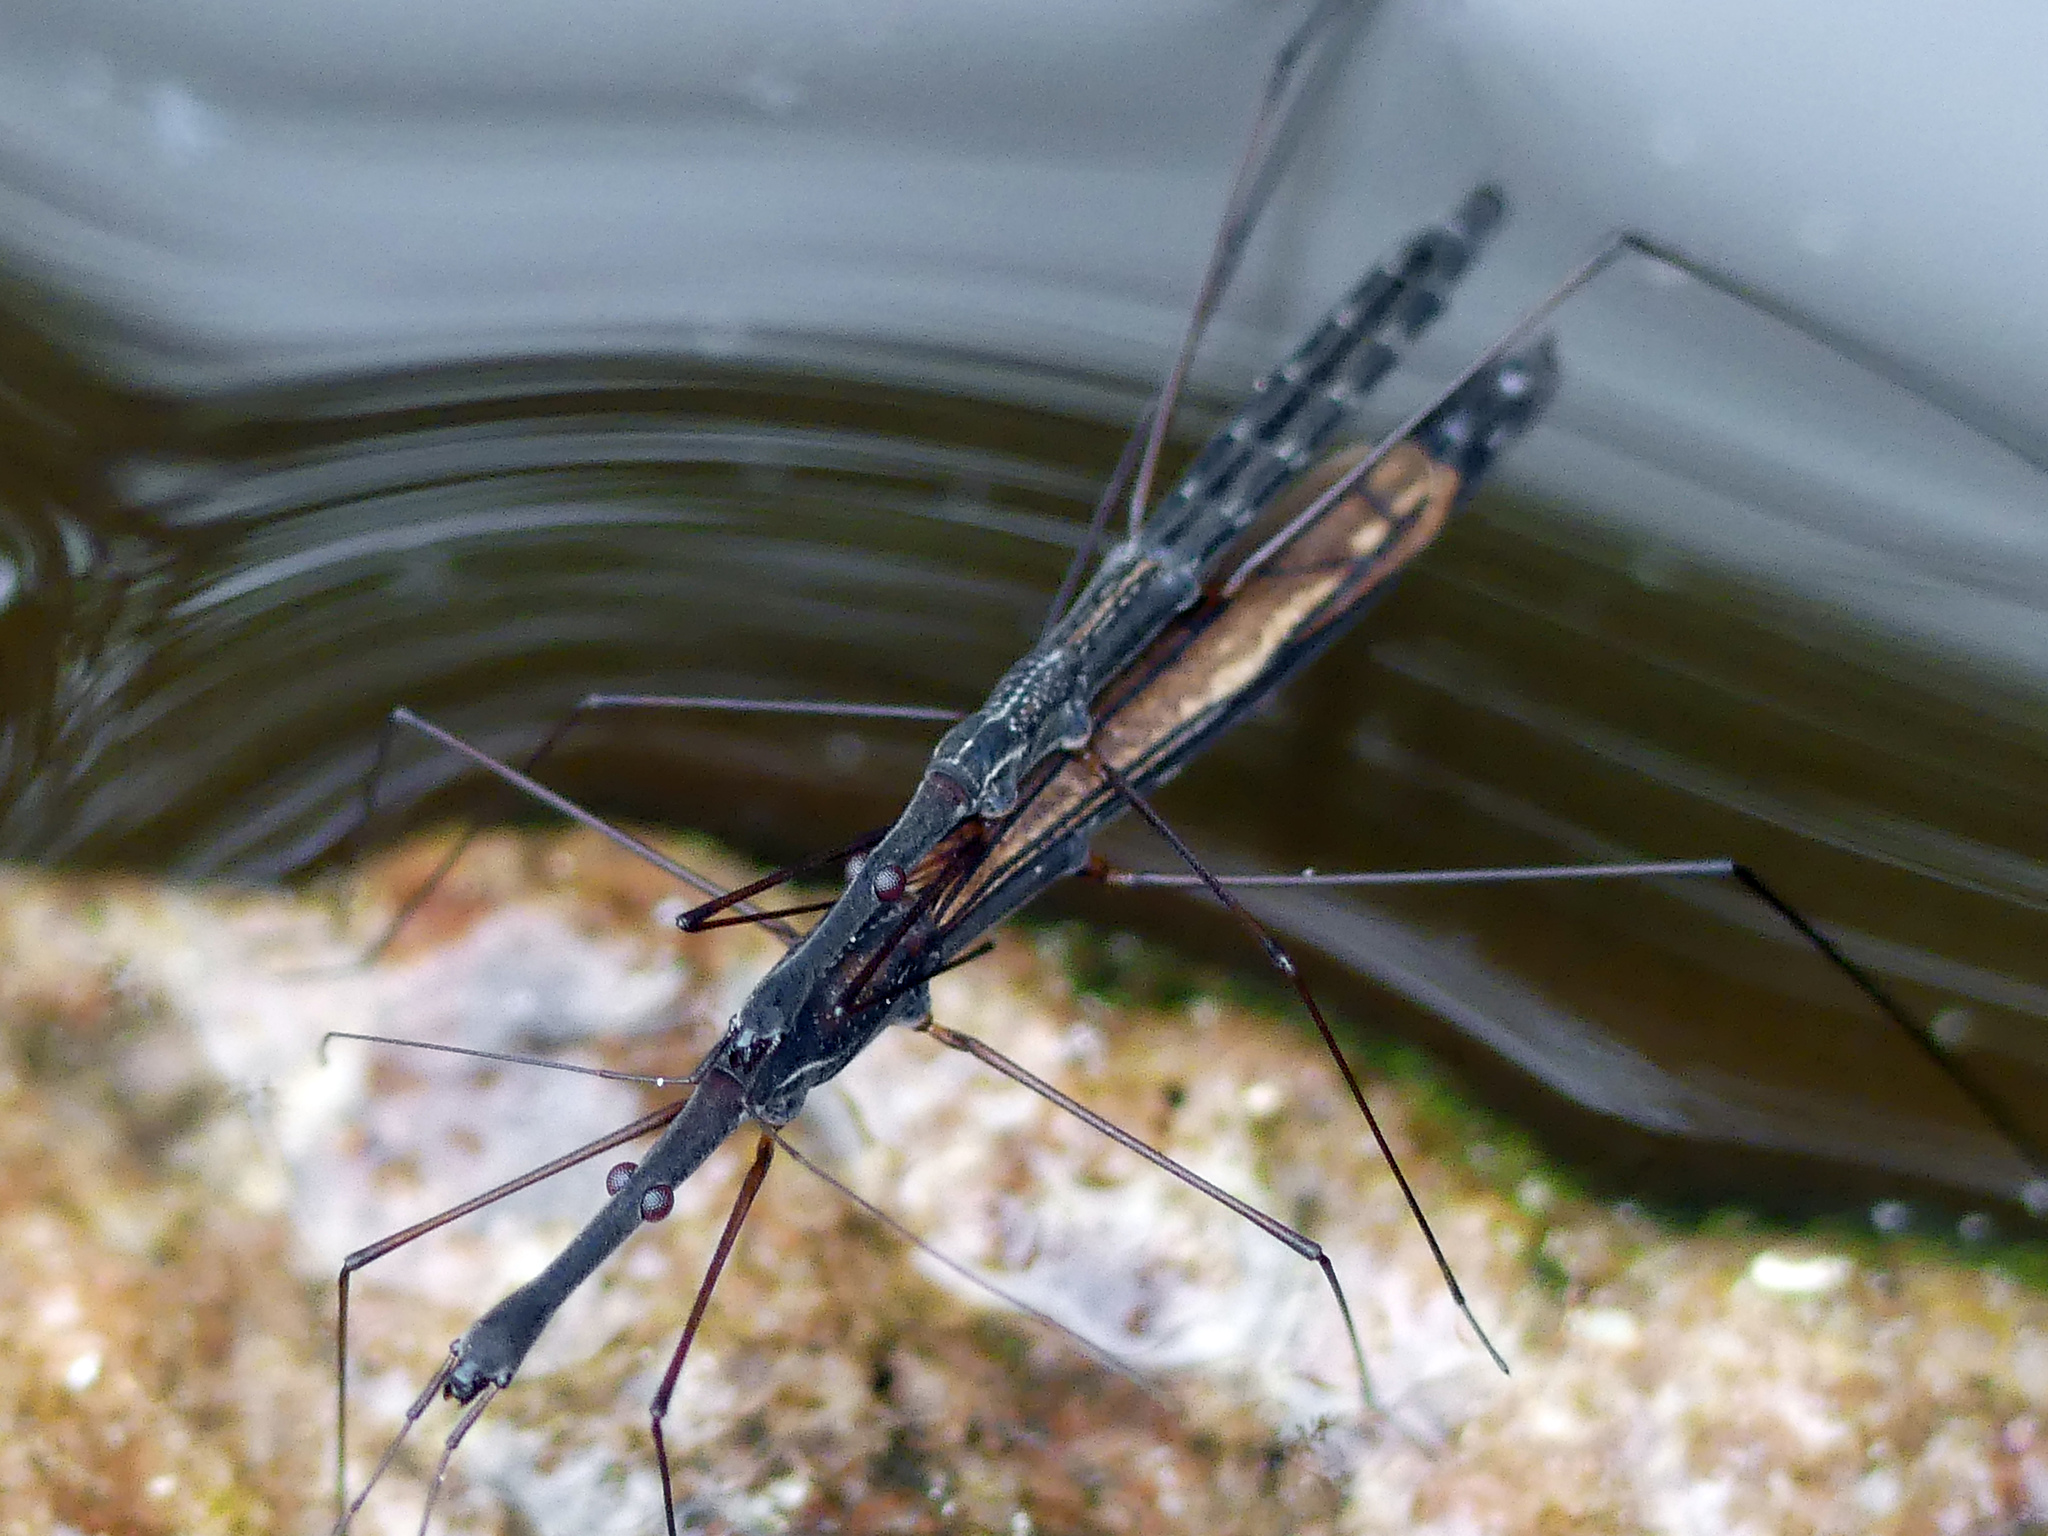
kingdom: Animalia
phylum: Arthropoda
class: Insecta
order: Hemiptera
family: Hydrometridae
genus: Hydrometra
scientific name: Hydrometra stagnorum
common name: Water measurer
